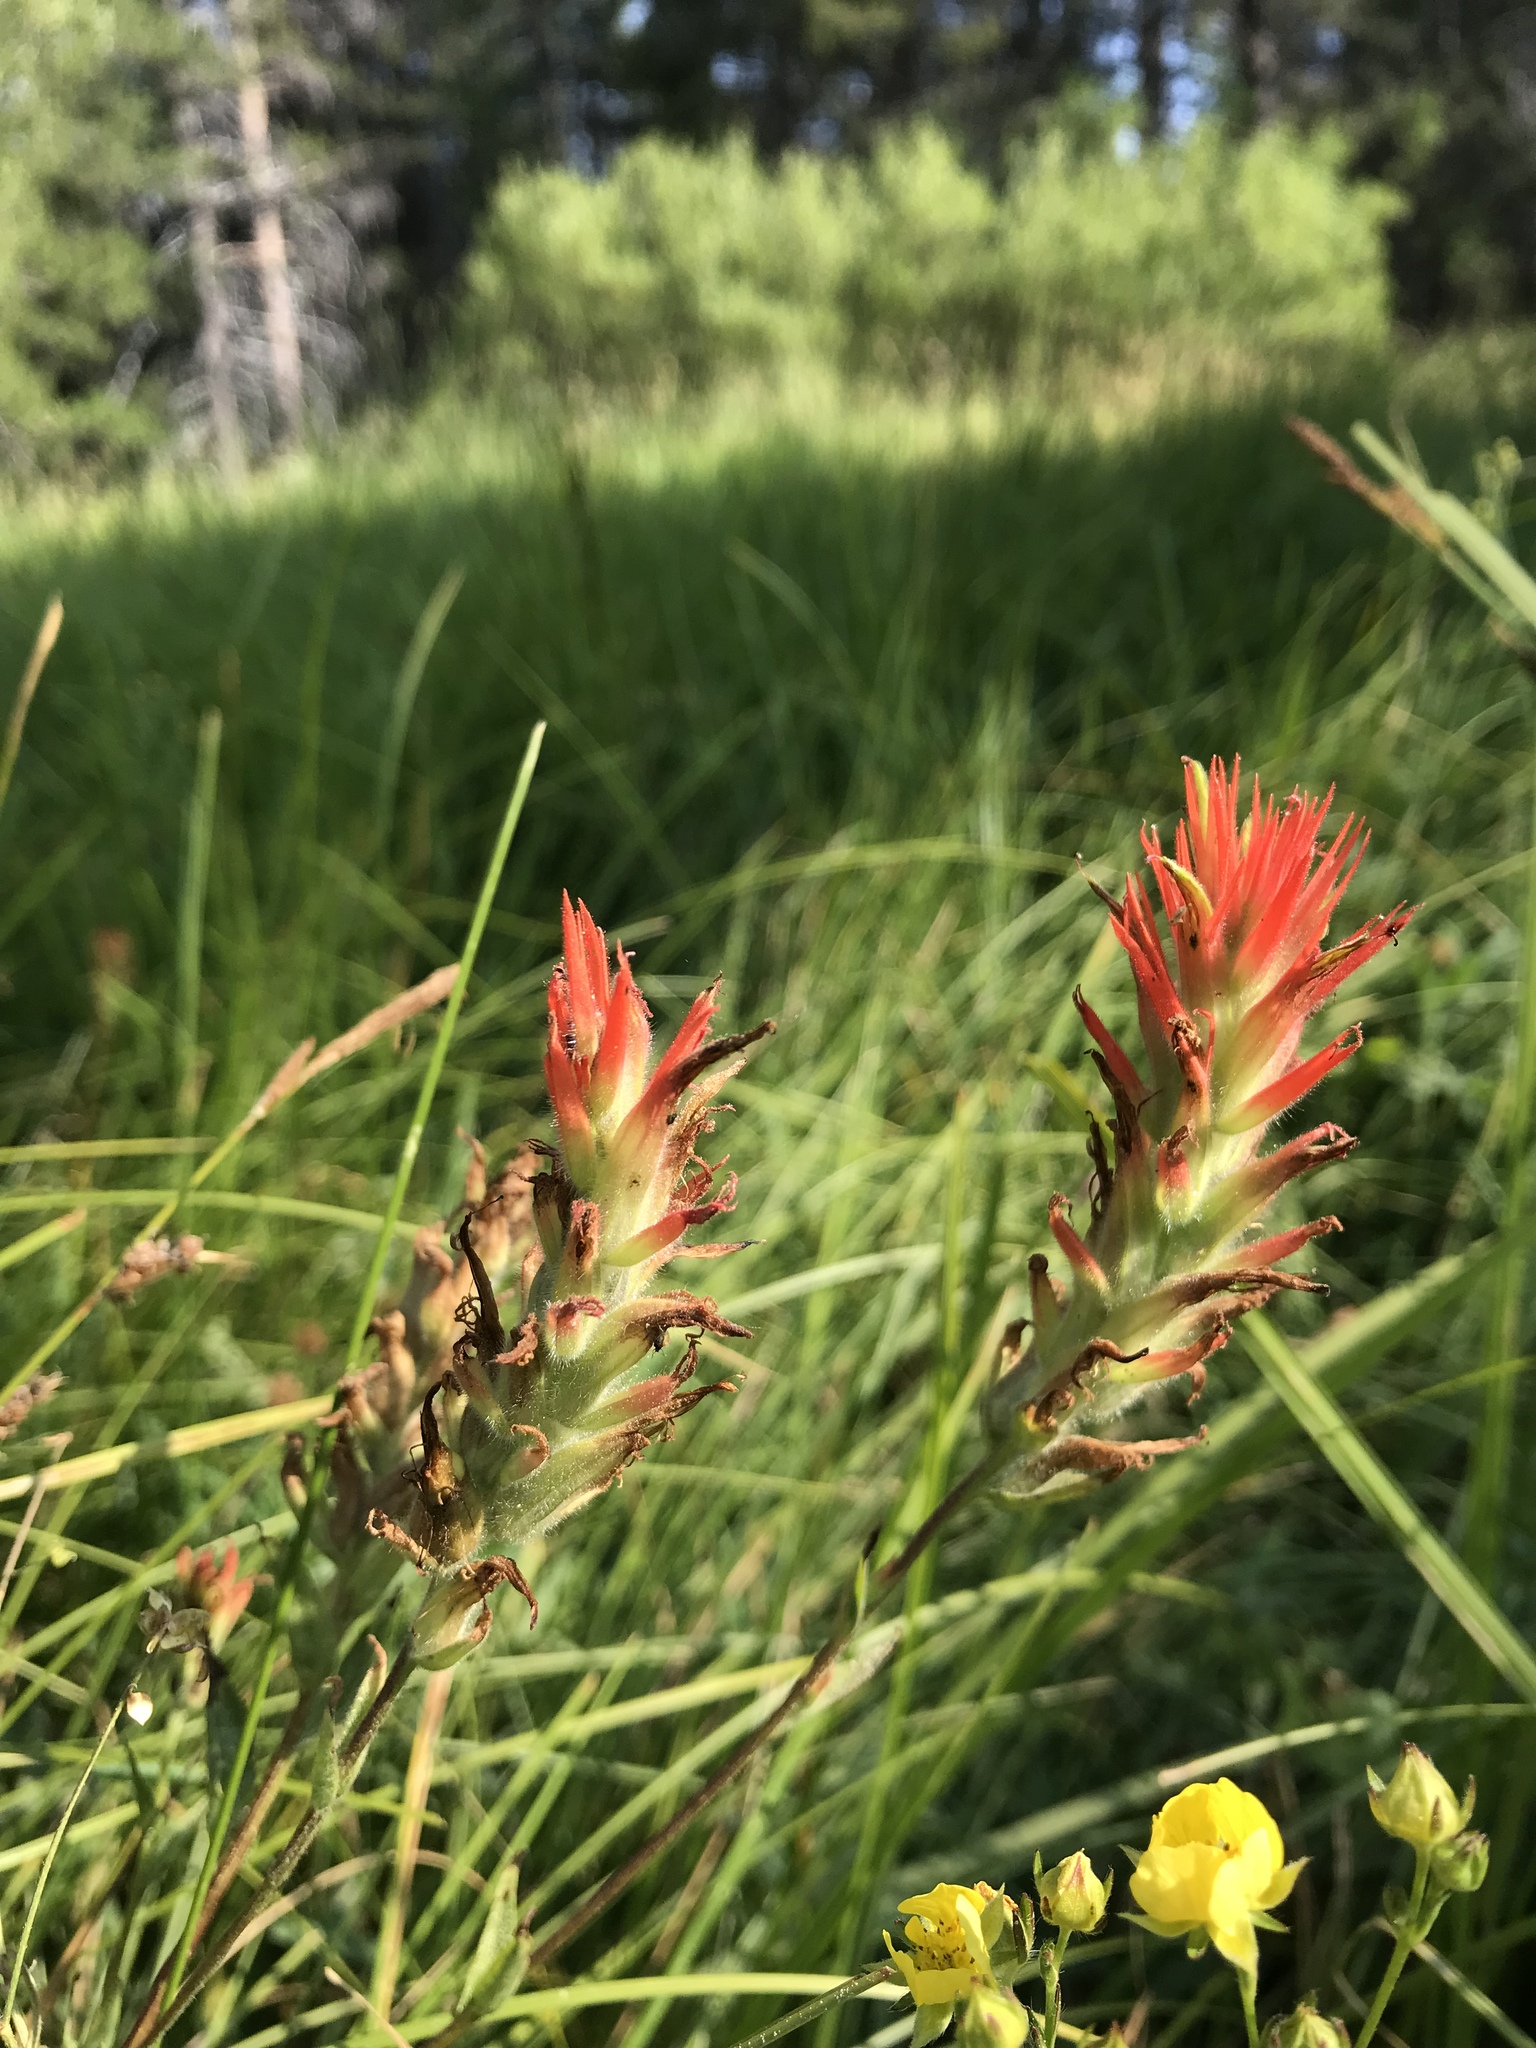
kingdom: Plantae
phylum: Tracheophyta
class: Magnoliopsida
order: Lamiales
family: Orobanchaceae
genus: Castilleja
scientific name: Castilleja miniata
